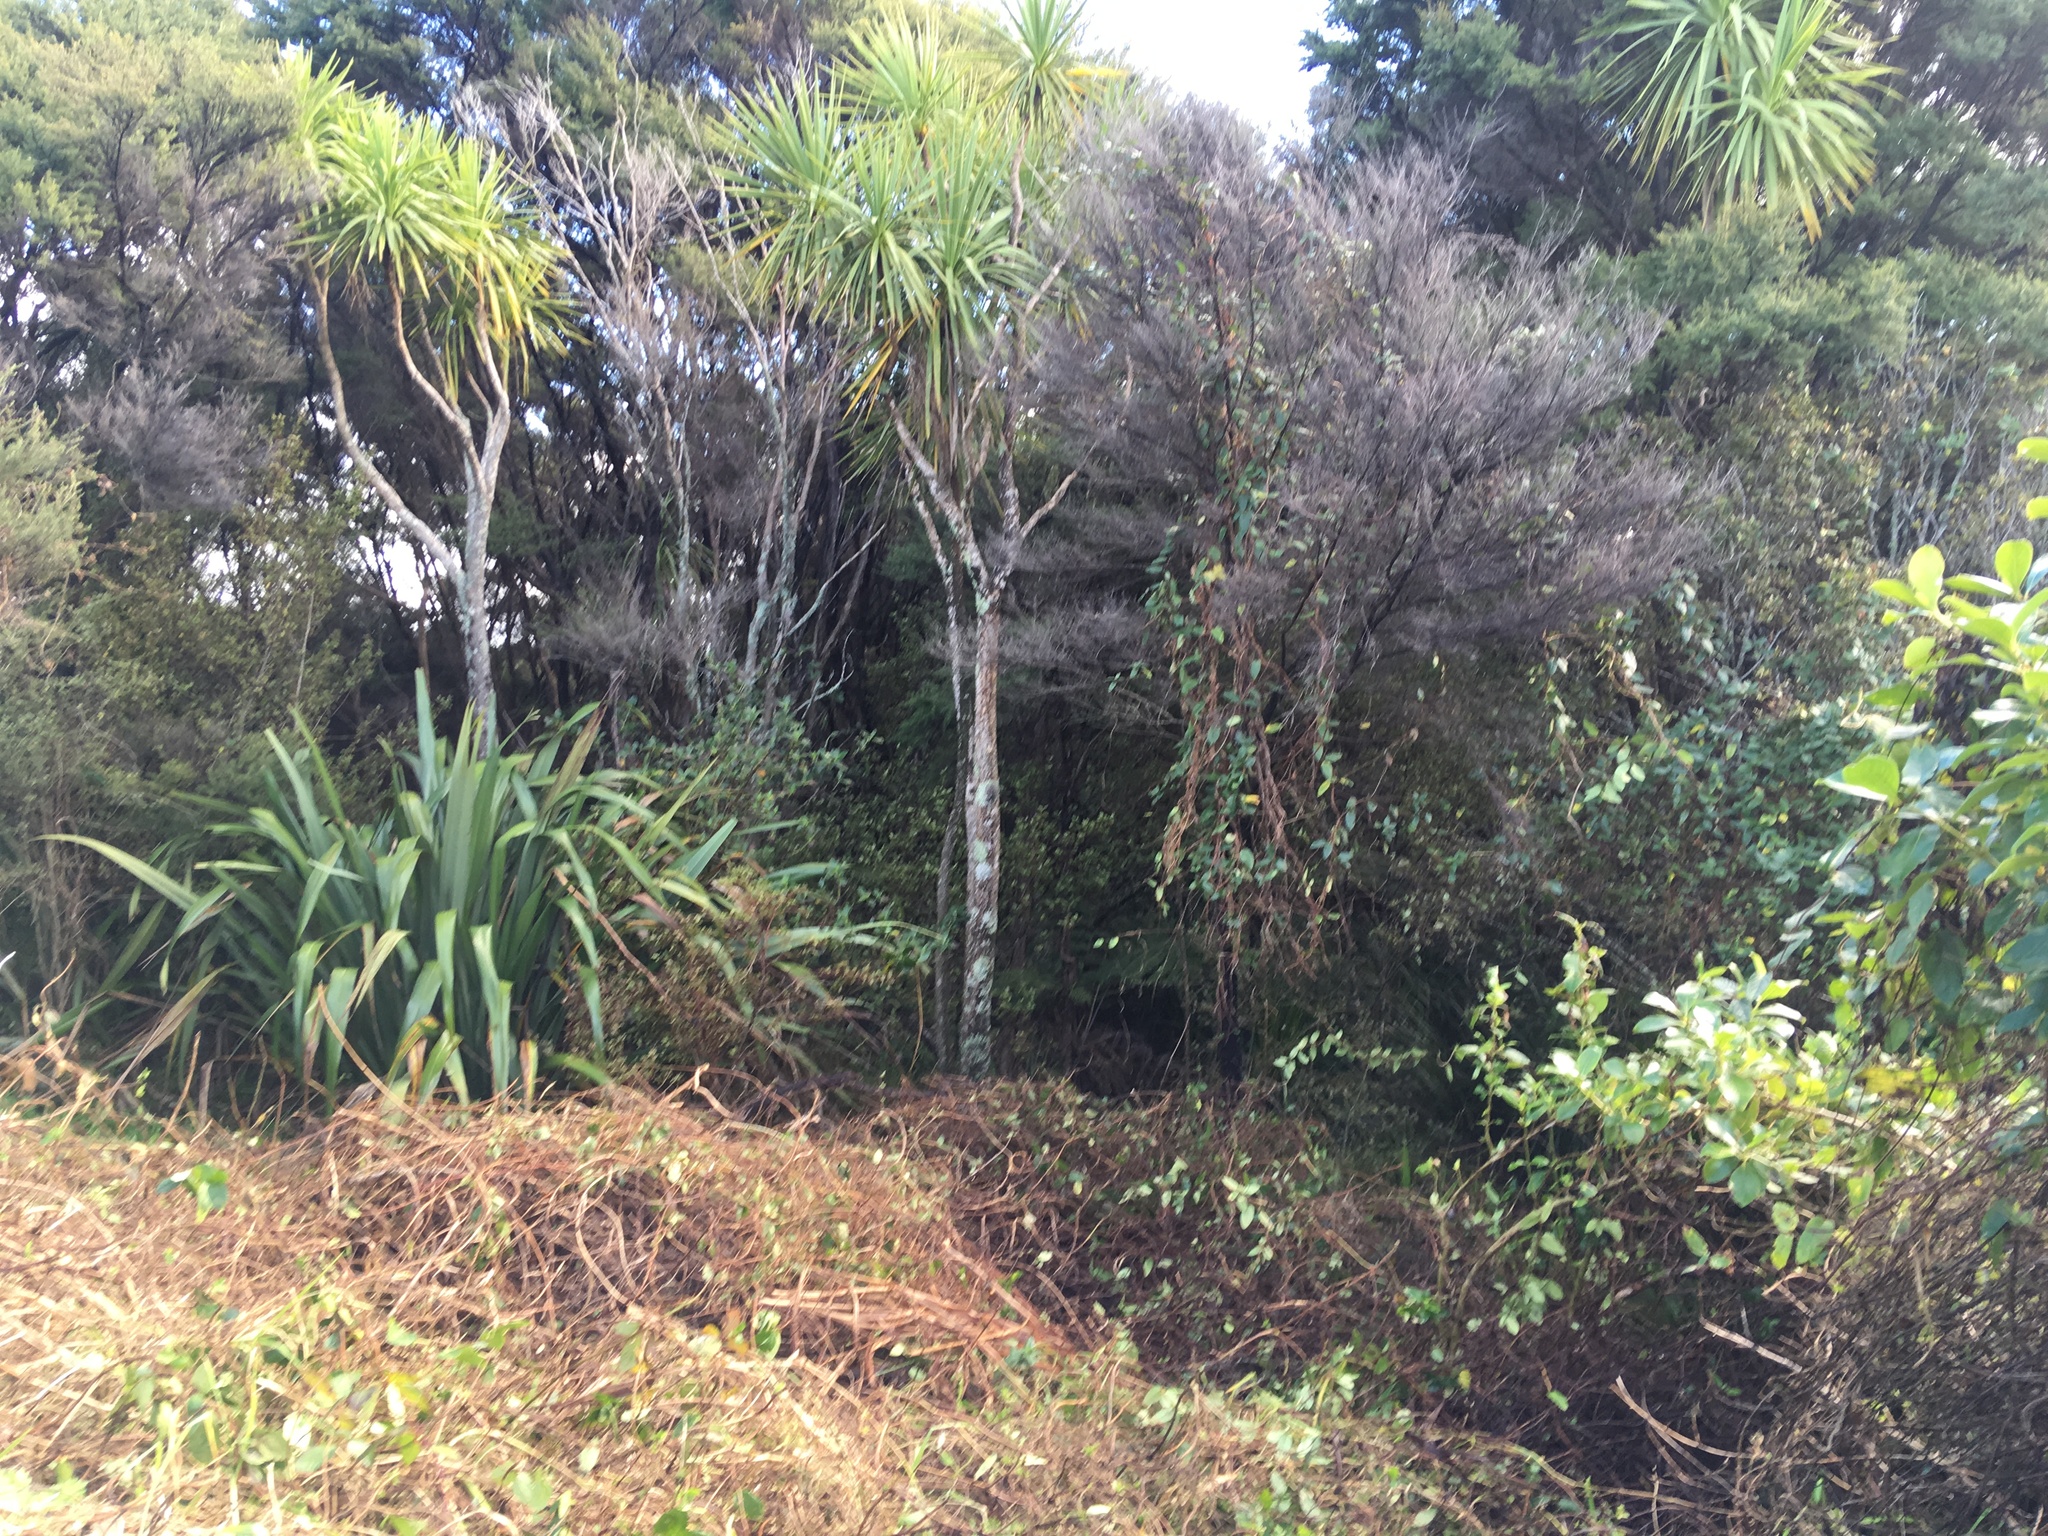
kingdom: Plantae
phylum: Tracheophyta
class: Liliopsida
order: Asparagales
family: Asparagaceae
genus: Cordyline
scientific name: Cordyline australis
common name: Cabbage-palm
